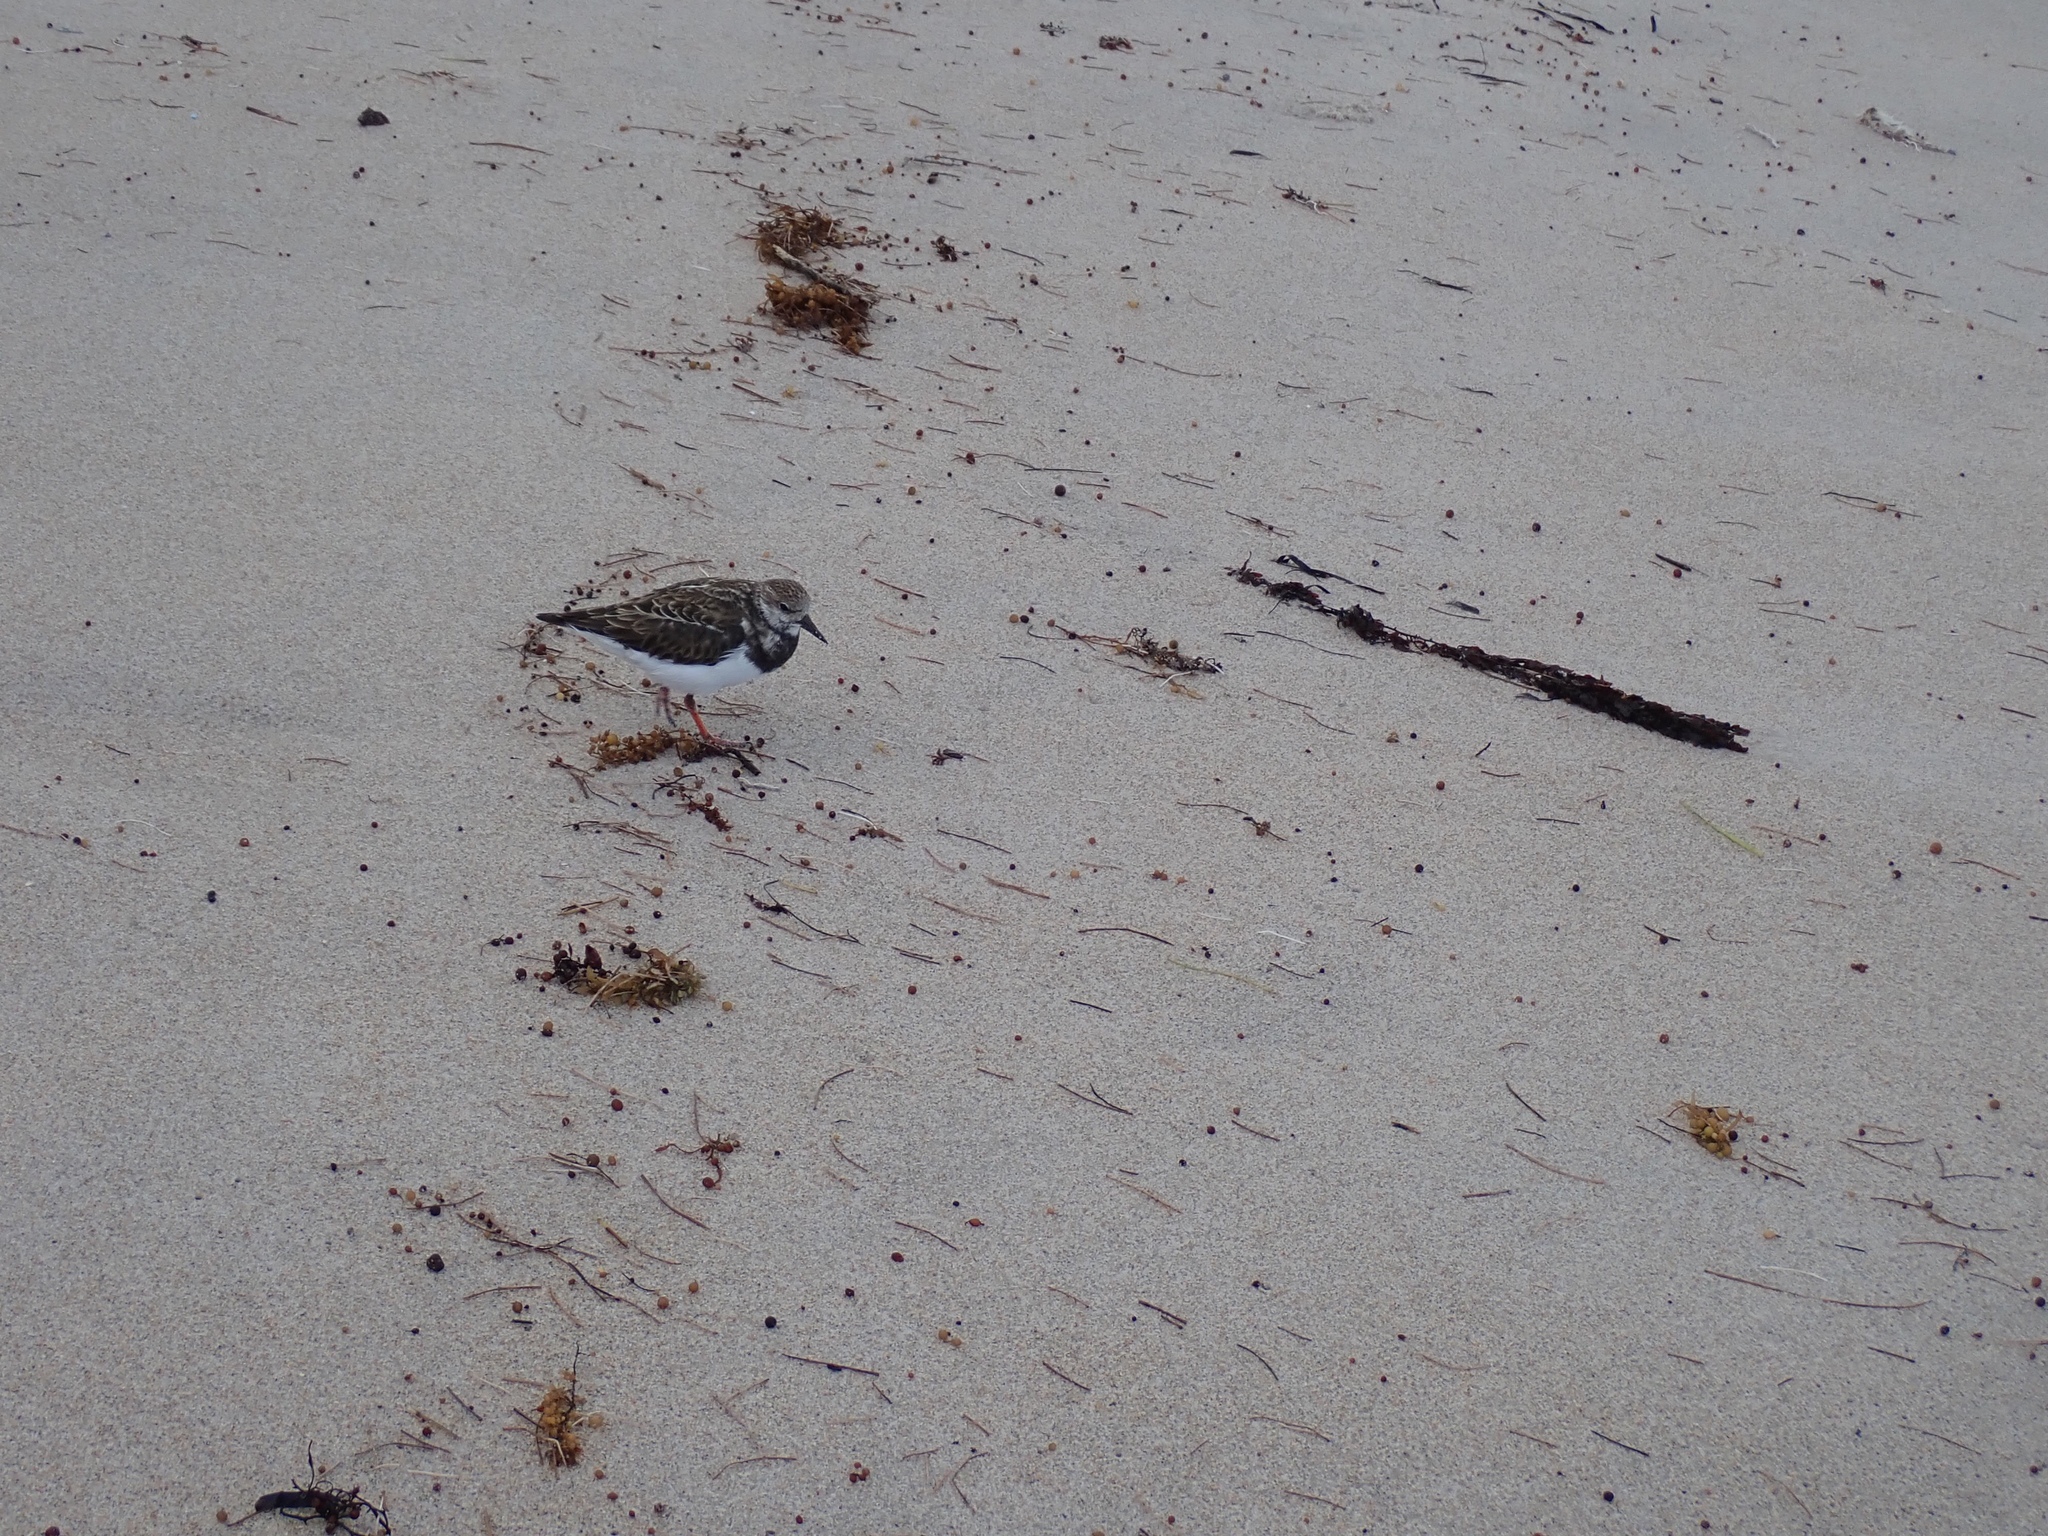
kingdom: Animalia
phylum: Chordata
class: Aves
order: Charadriiformes
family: Scolopacidae
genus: Arenaria
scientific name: Arenaria interpres
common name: Ruddy turnstone
